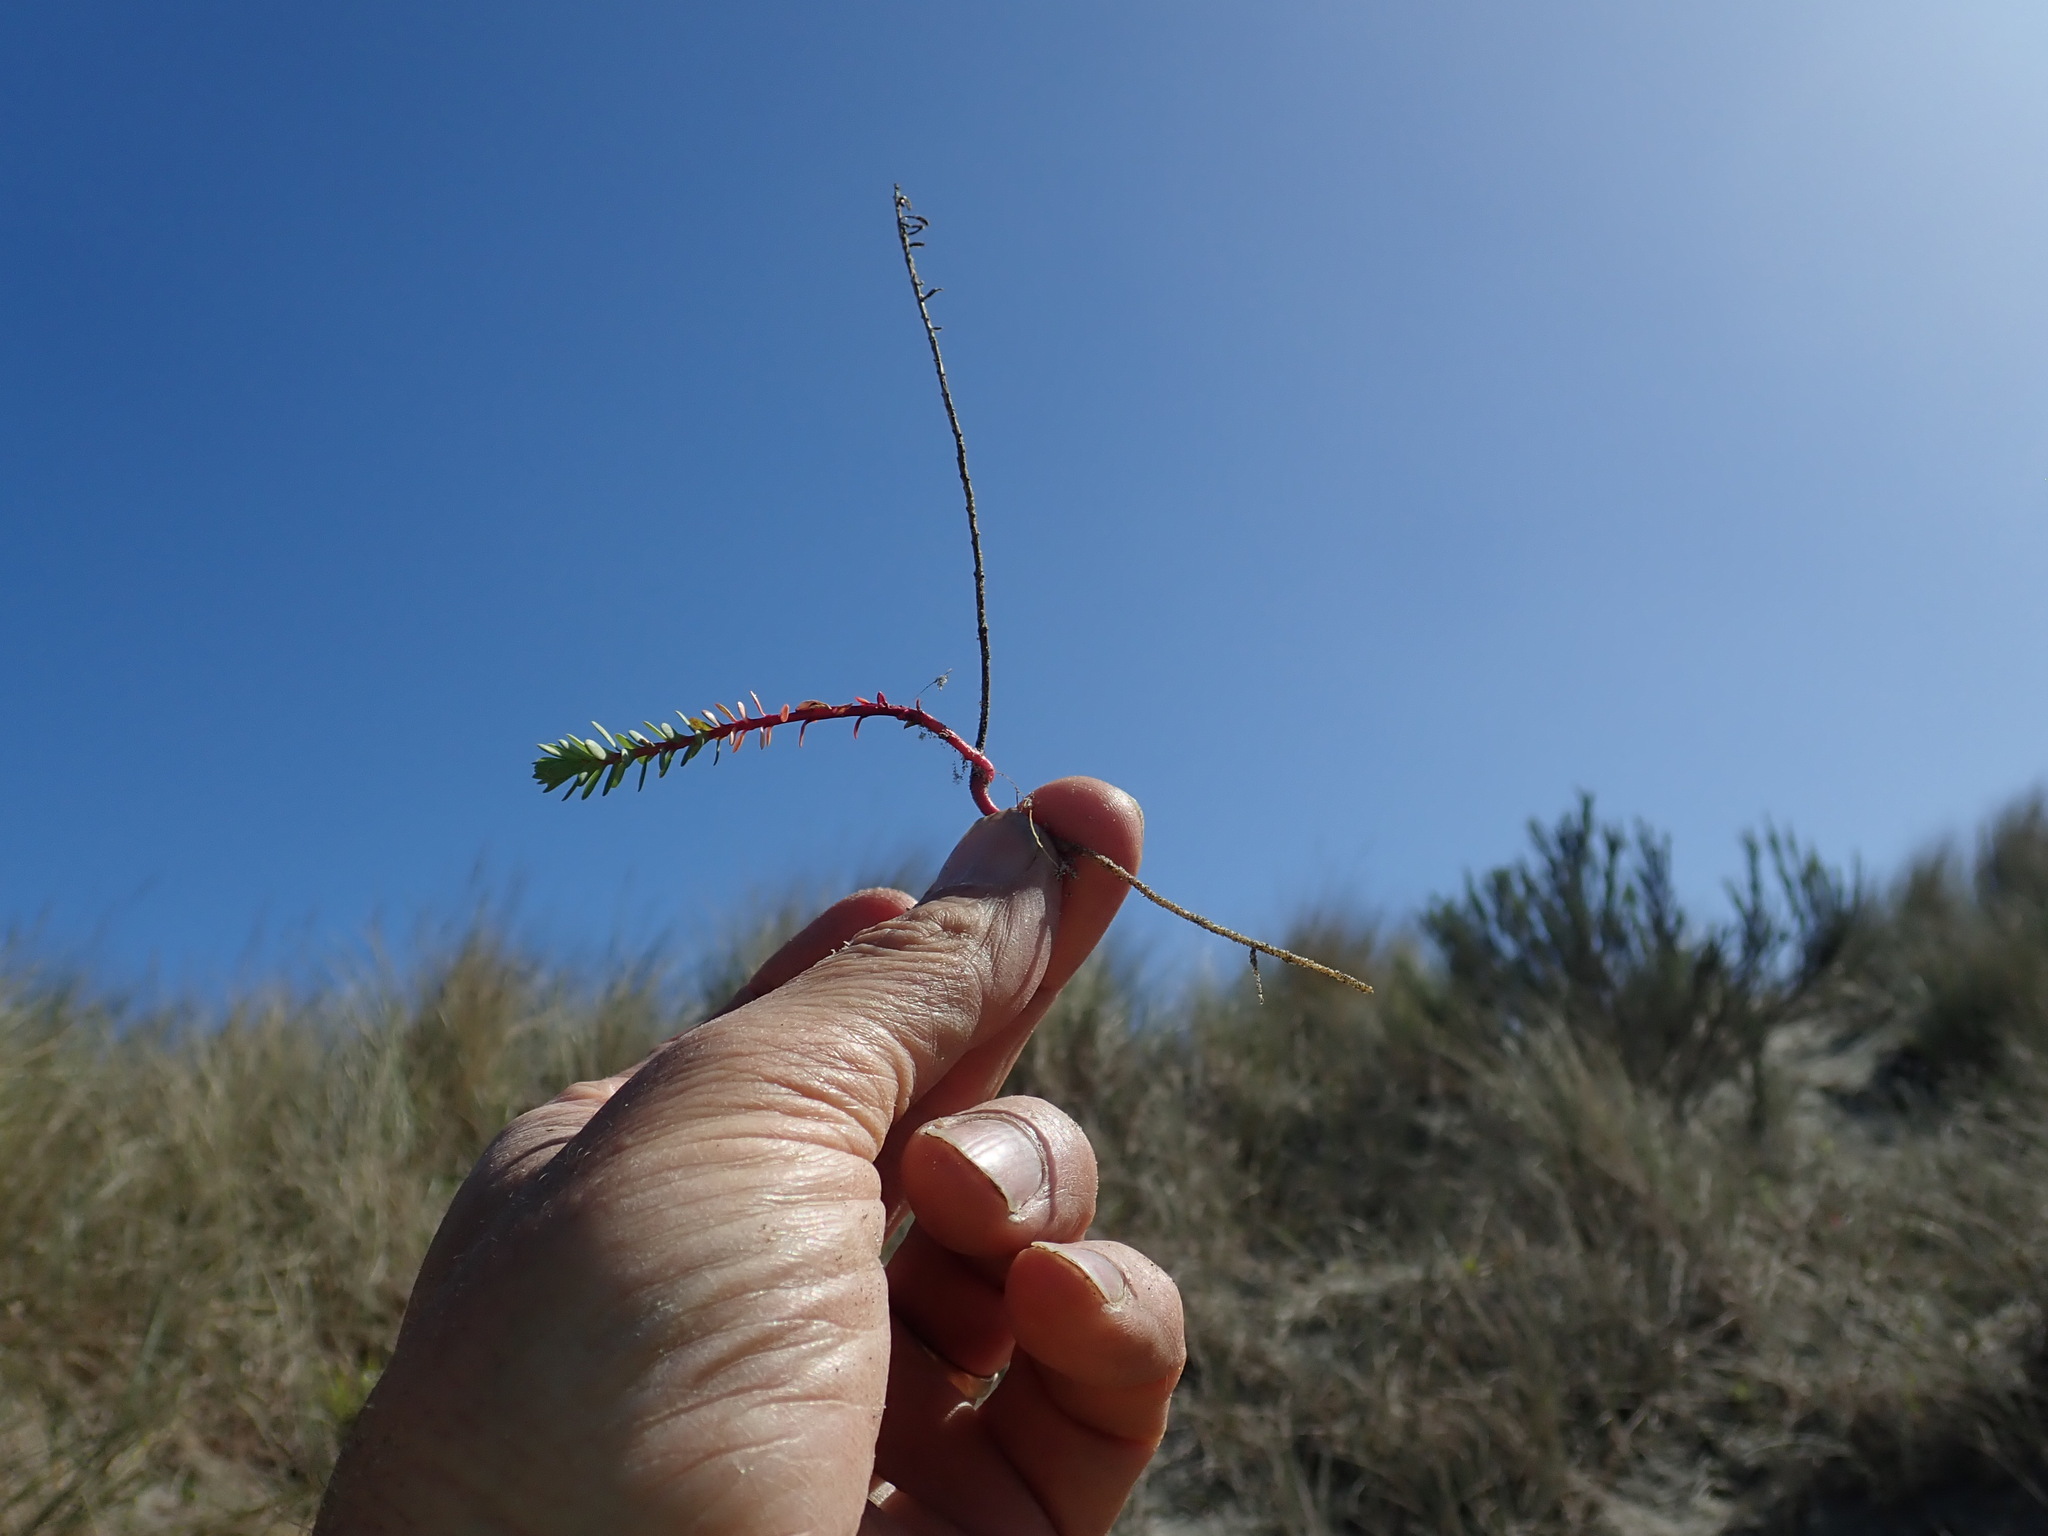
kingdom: Plantae
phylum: Tracheophyta
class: Magnoliopsida
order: Malpighiales
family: Euphorbiaceae
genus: Euphorbia
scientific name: Euphorbia paralias
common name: Sea spurge
